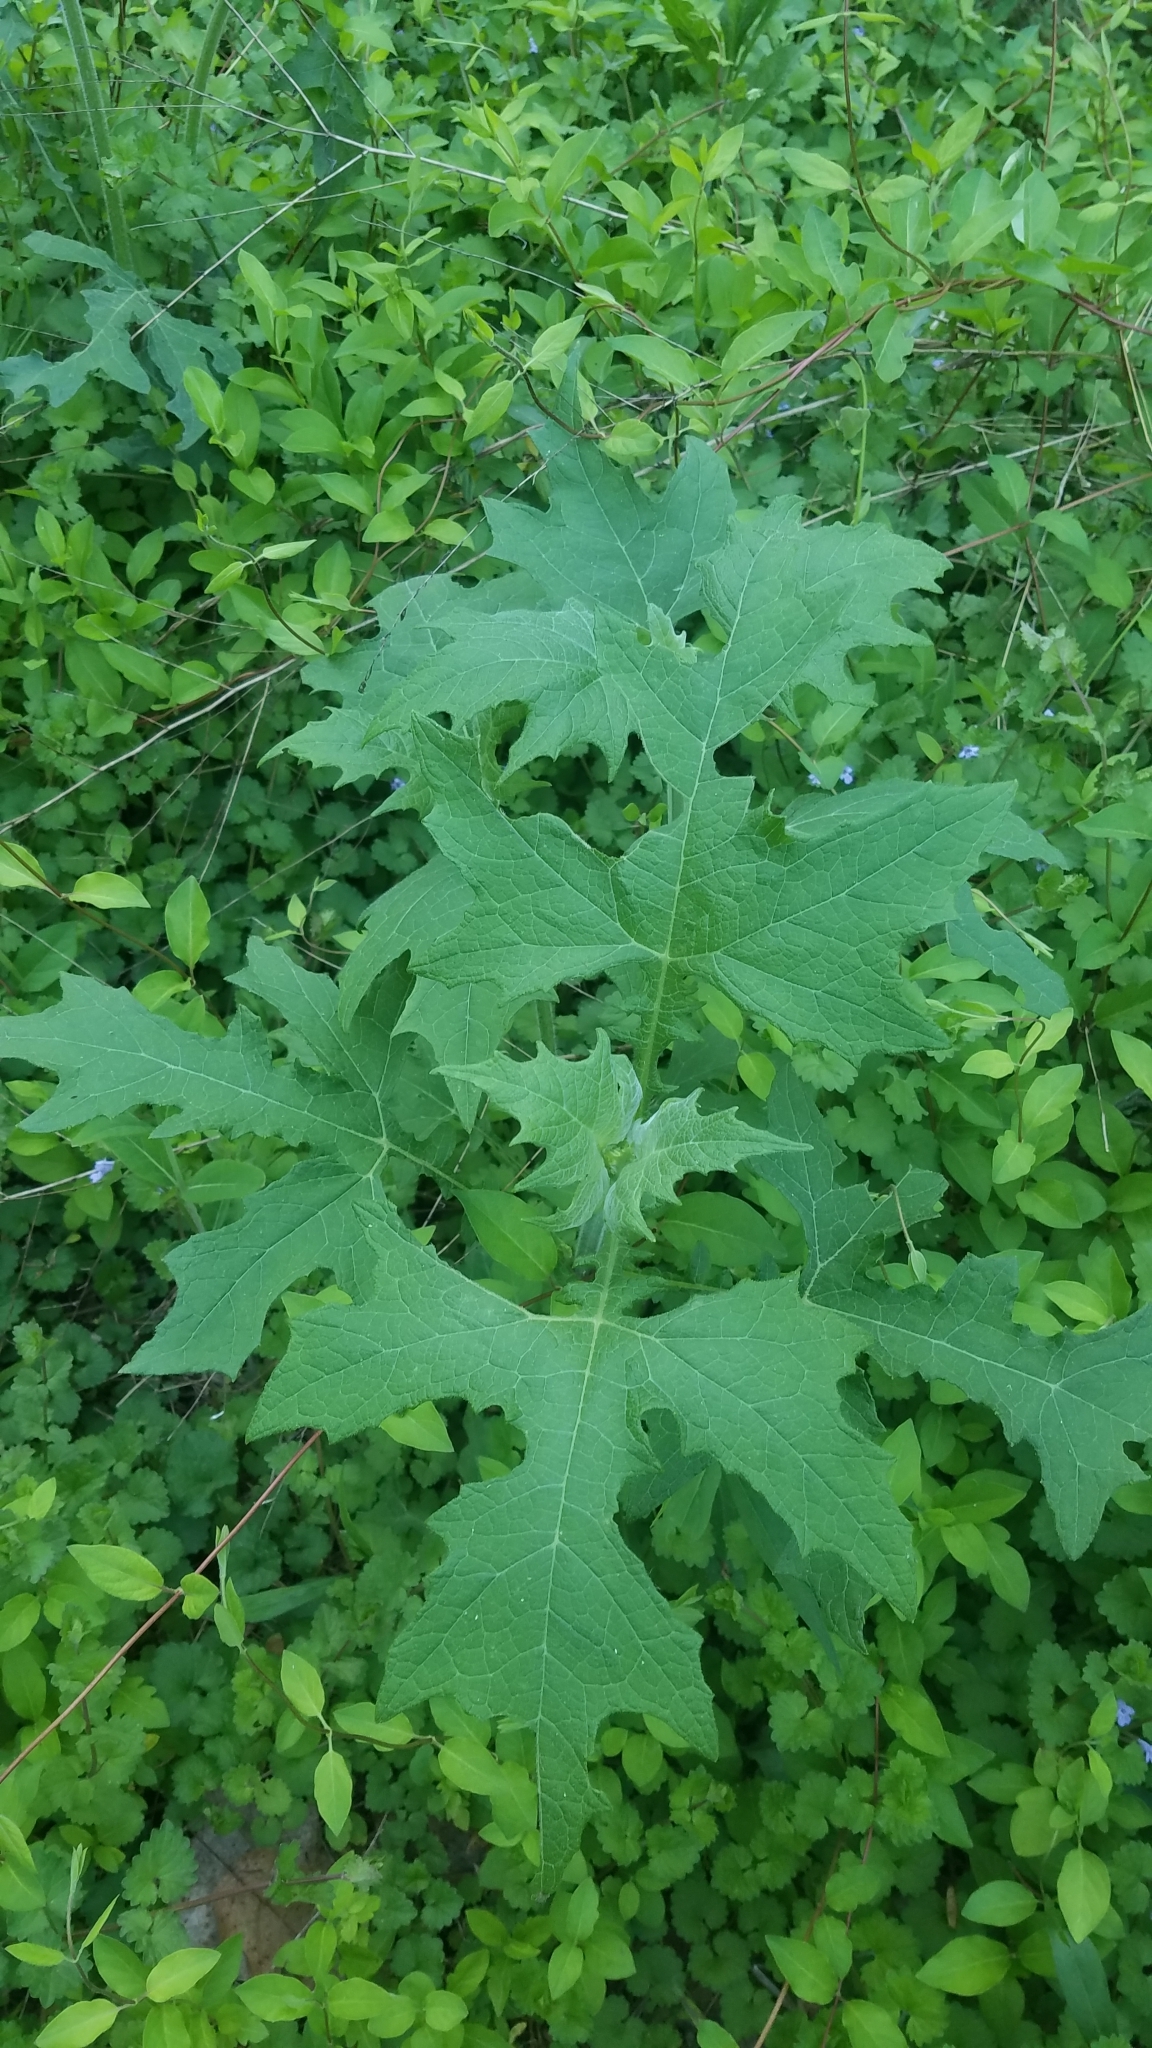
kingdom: Plantae
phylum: Tracheophyta
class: Magnoliopsida
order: Asterales
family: Asteraceae
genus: Polymnia
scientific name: Polymnia canadensis
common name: Pale-flowered leafcup
